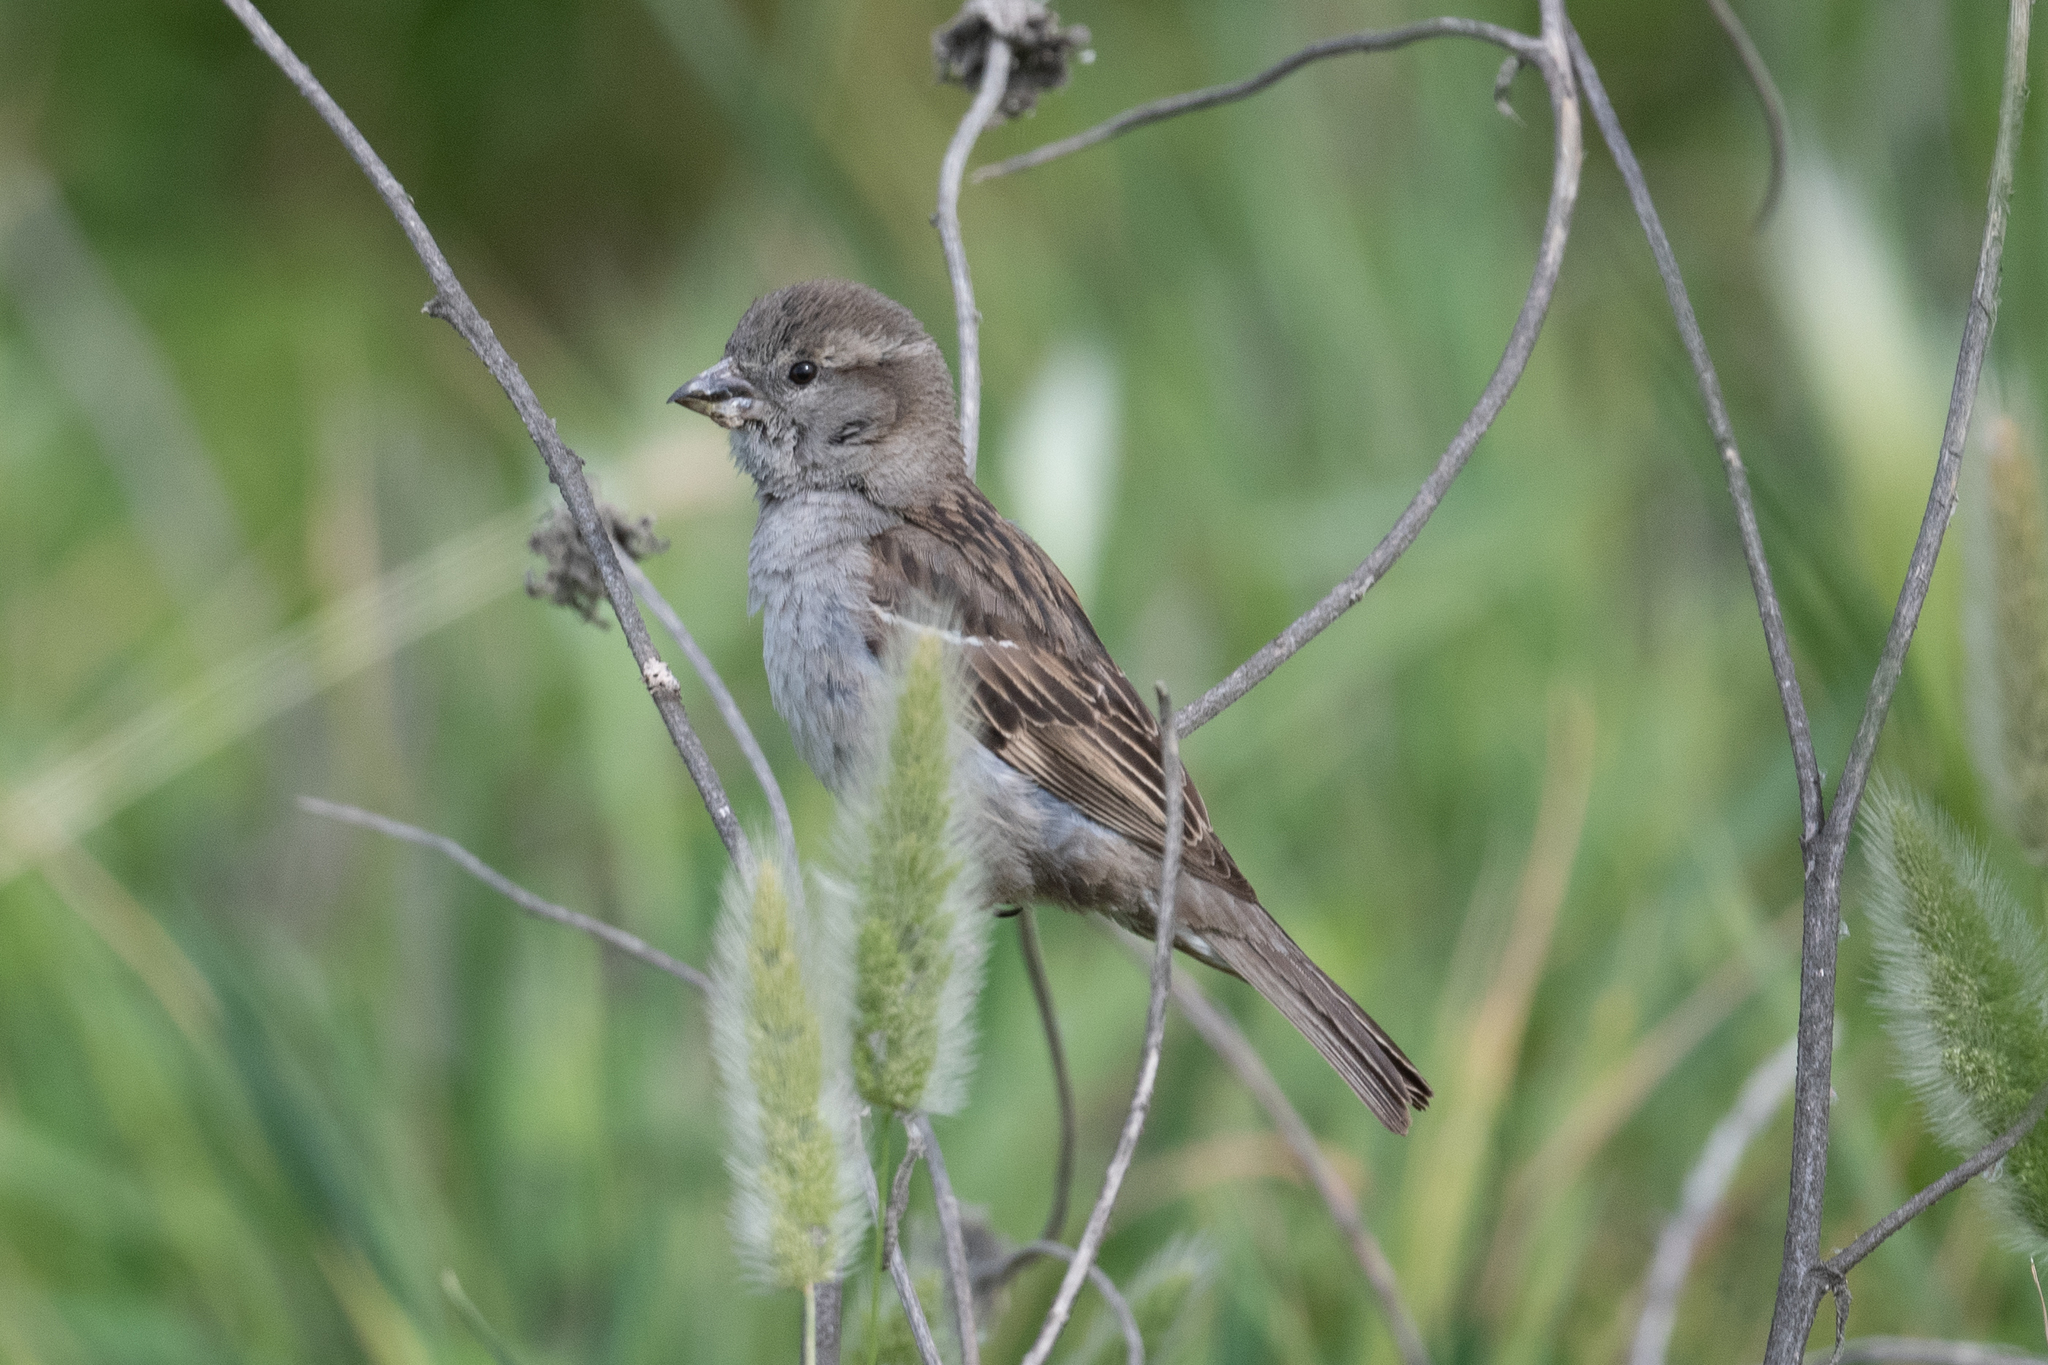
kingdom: Animalia
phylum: Chordata
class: Aves
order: Passeriformes
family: Passeridae
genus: Passer
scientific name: Passer domesticus
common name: House sparrow
